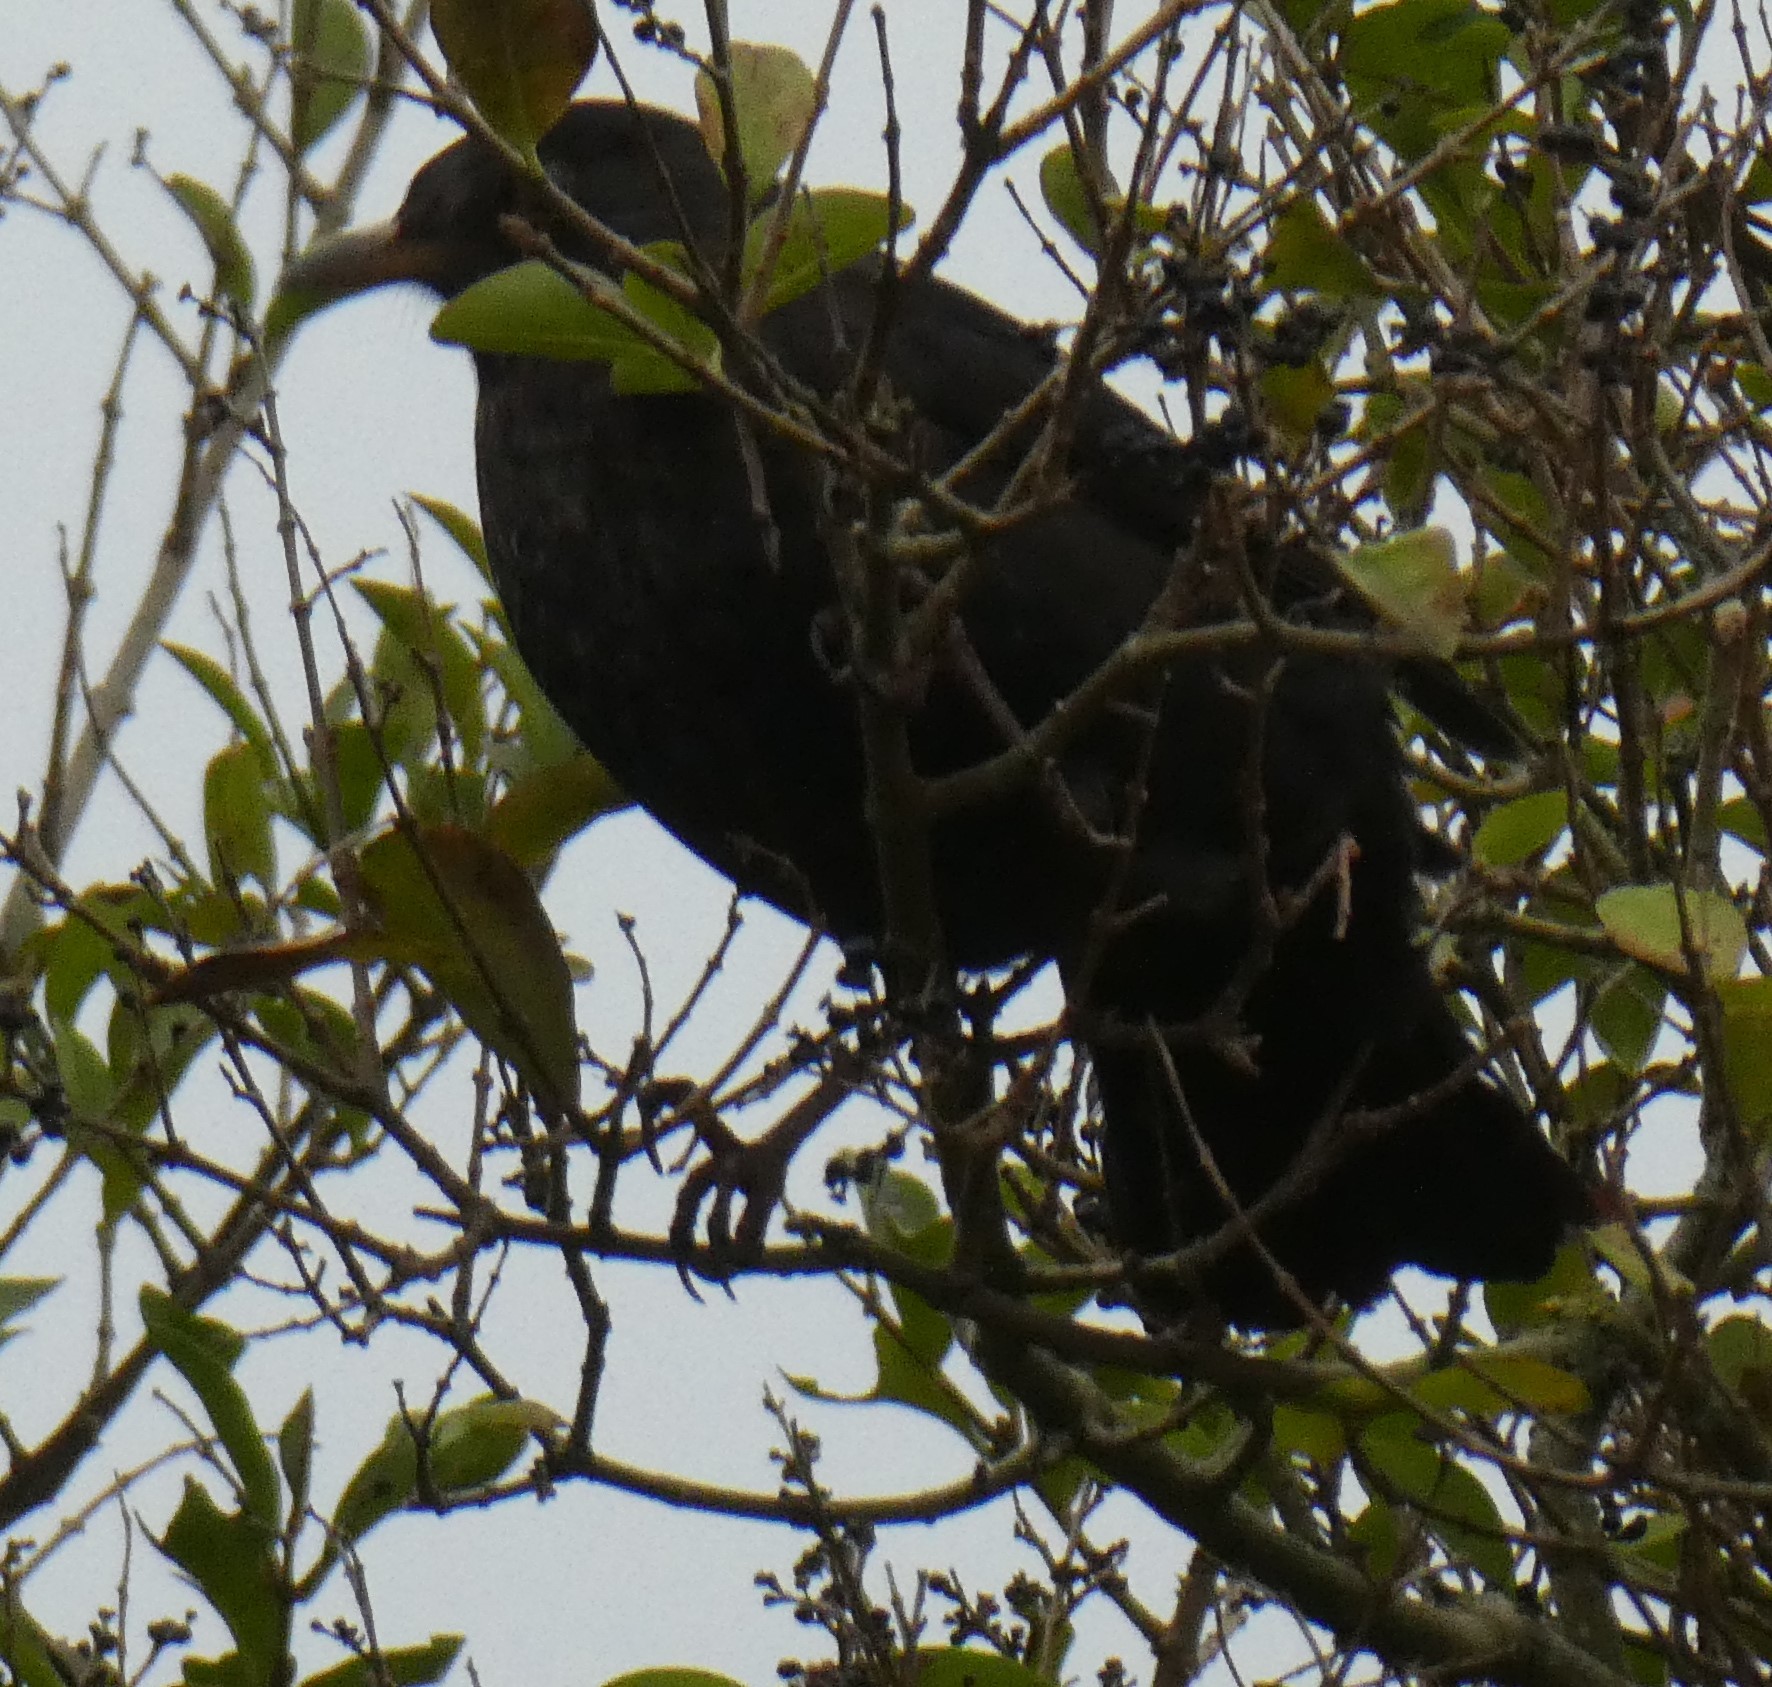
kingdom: Animalia
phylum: Chordata
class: Aves
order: Passeriformes
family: Turdidae
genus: Turdus
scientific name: Turdus merula
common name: Common blackbird
